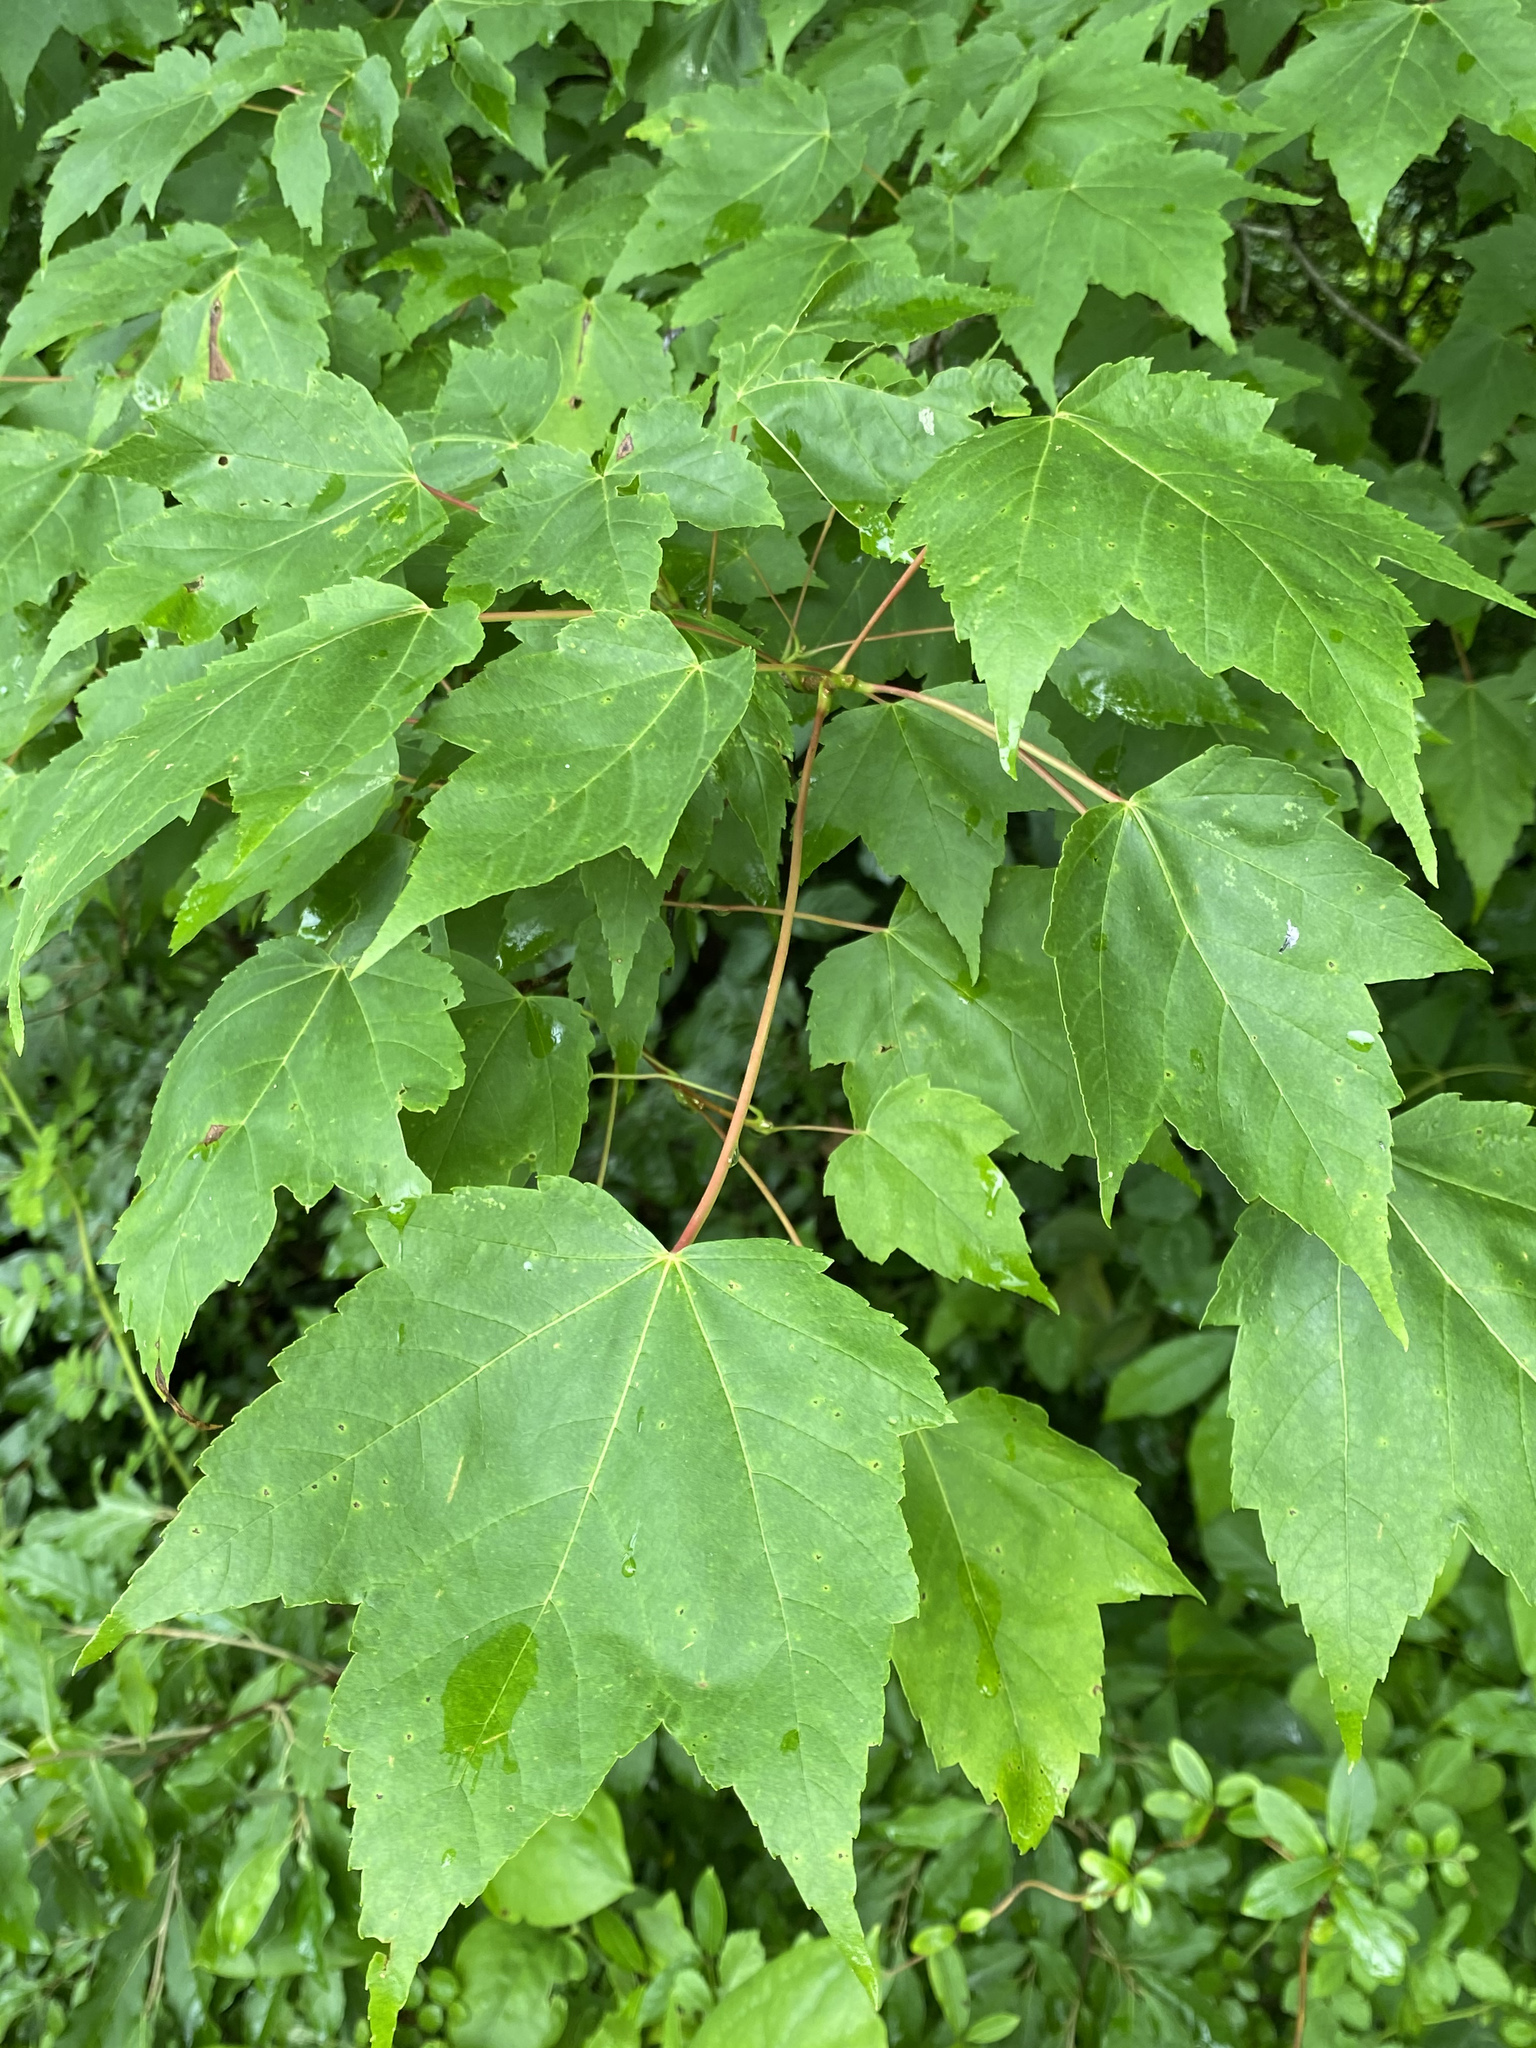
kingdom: Plantae
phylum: Tracheophyta
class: Magnoliopsida
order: Sapindales
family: Sapindaceae
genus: Acer
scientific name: Acer rubrum
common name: Red maple
